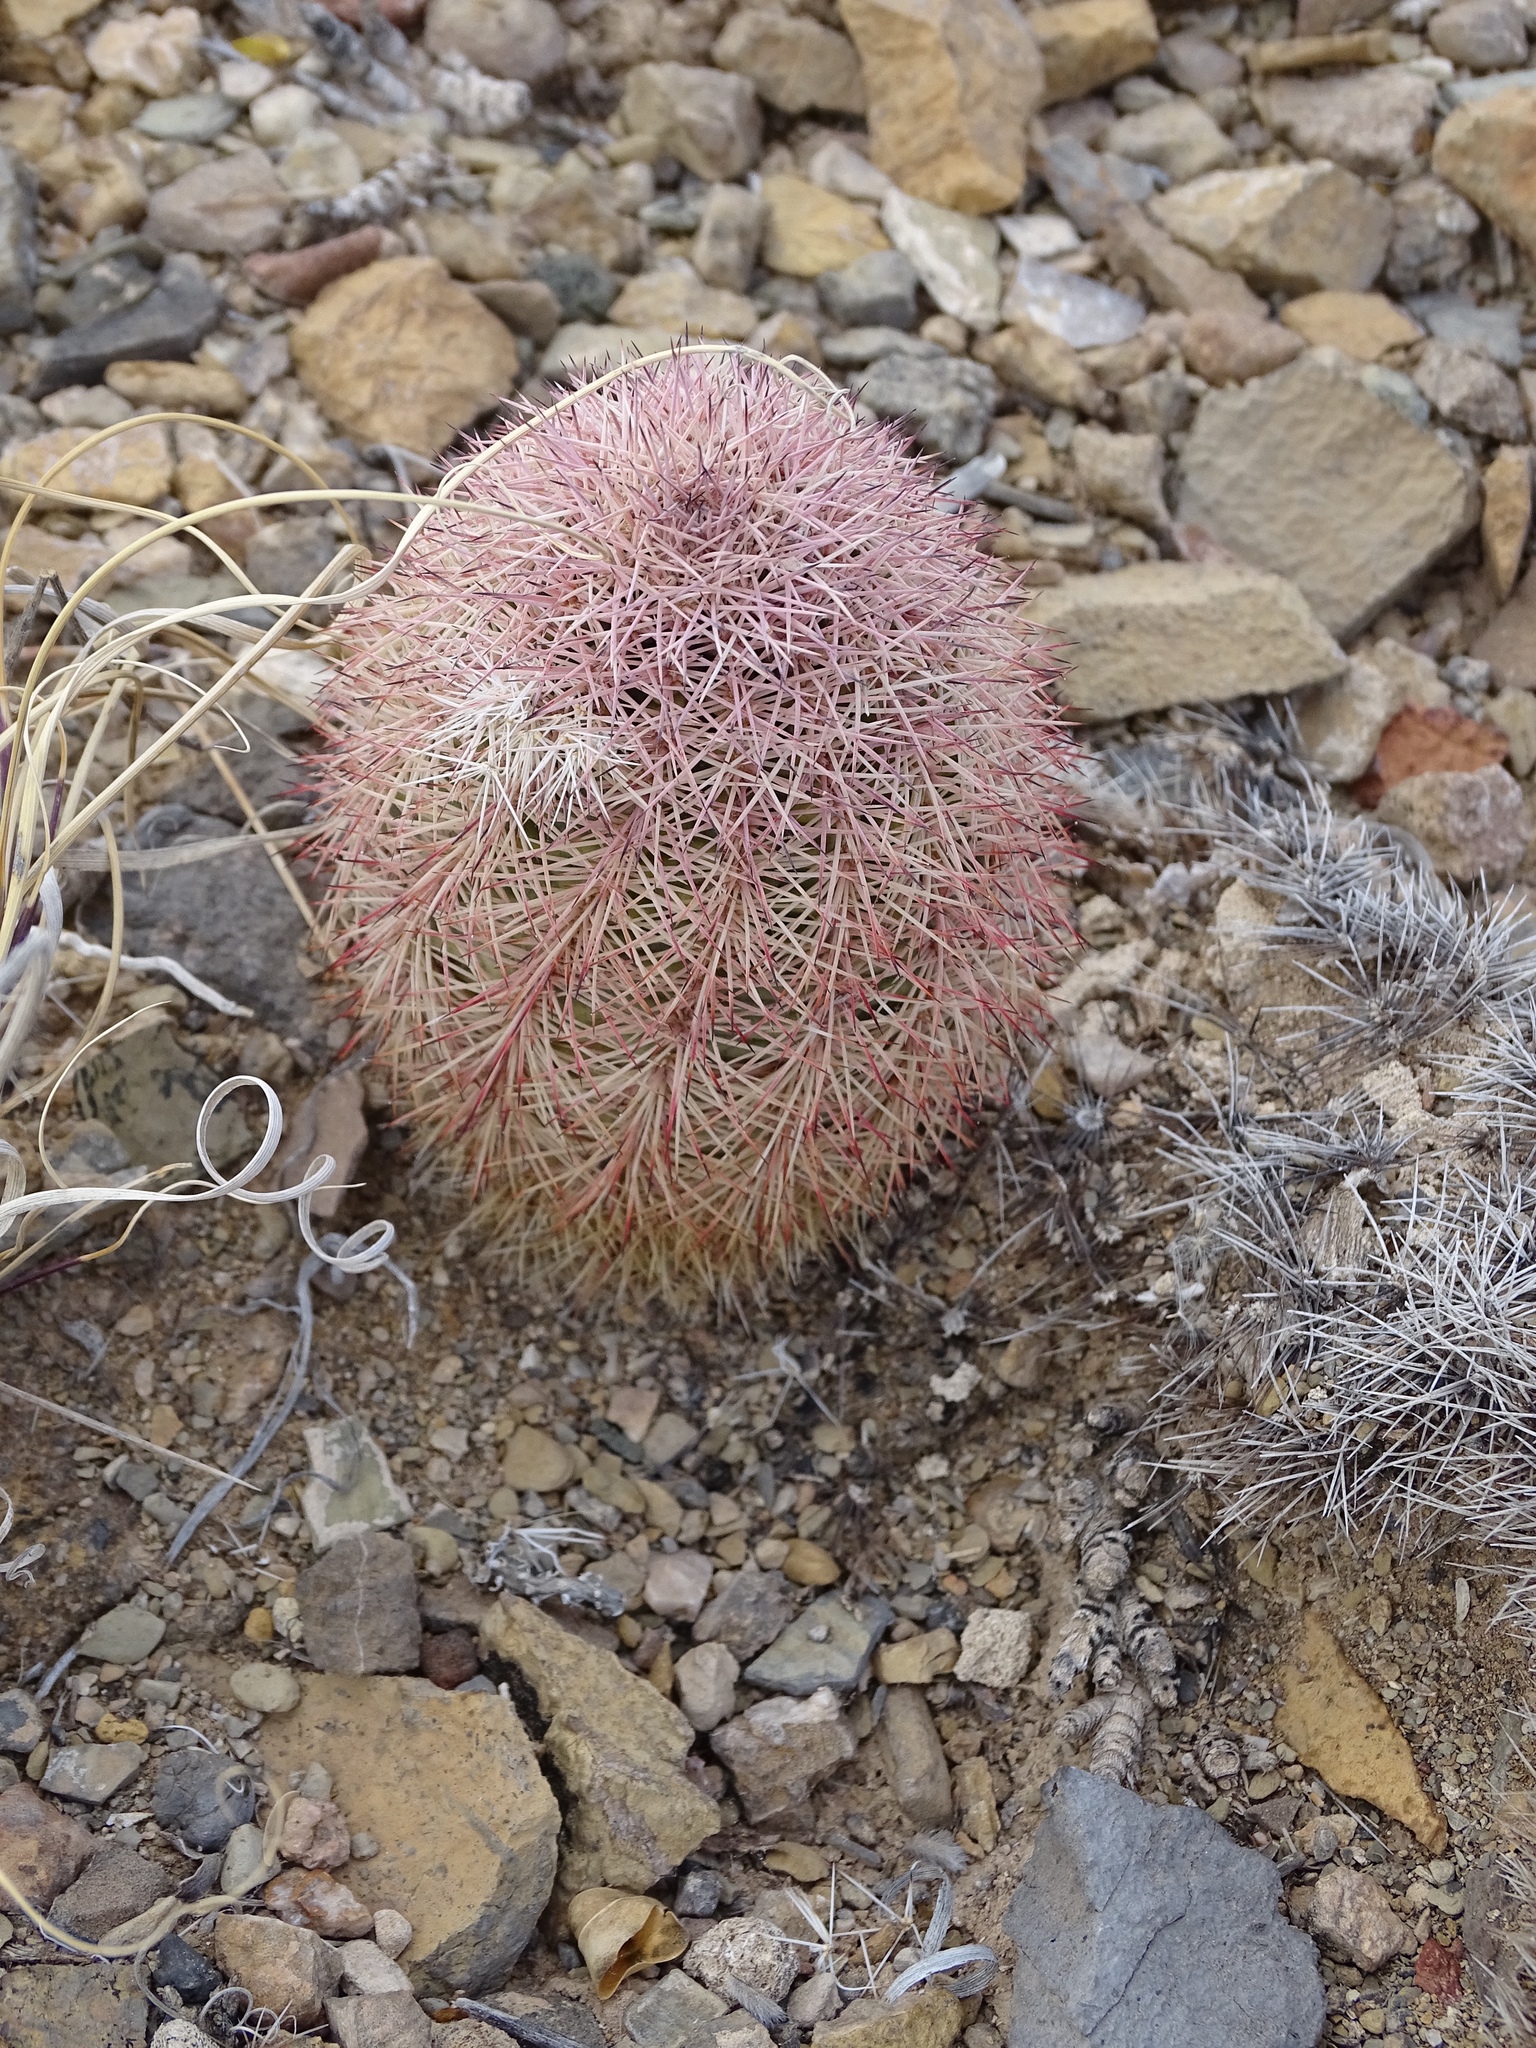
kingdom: Plantae
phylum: Tracheophyta
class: Magnoliopsida
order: Caryophyllales
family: Cactaceae
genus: Echinocereus
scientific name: Echinocereus dasyacanthus
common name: Spiny hedgehog cactus
